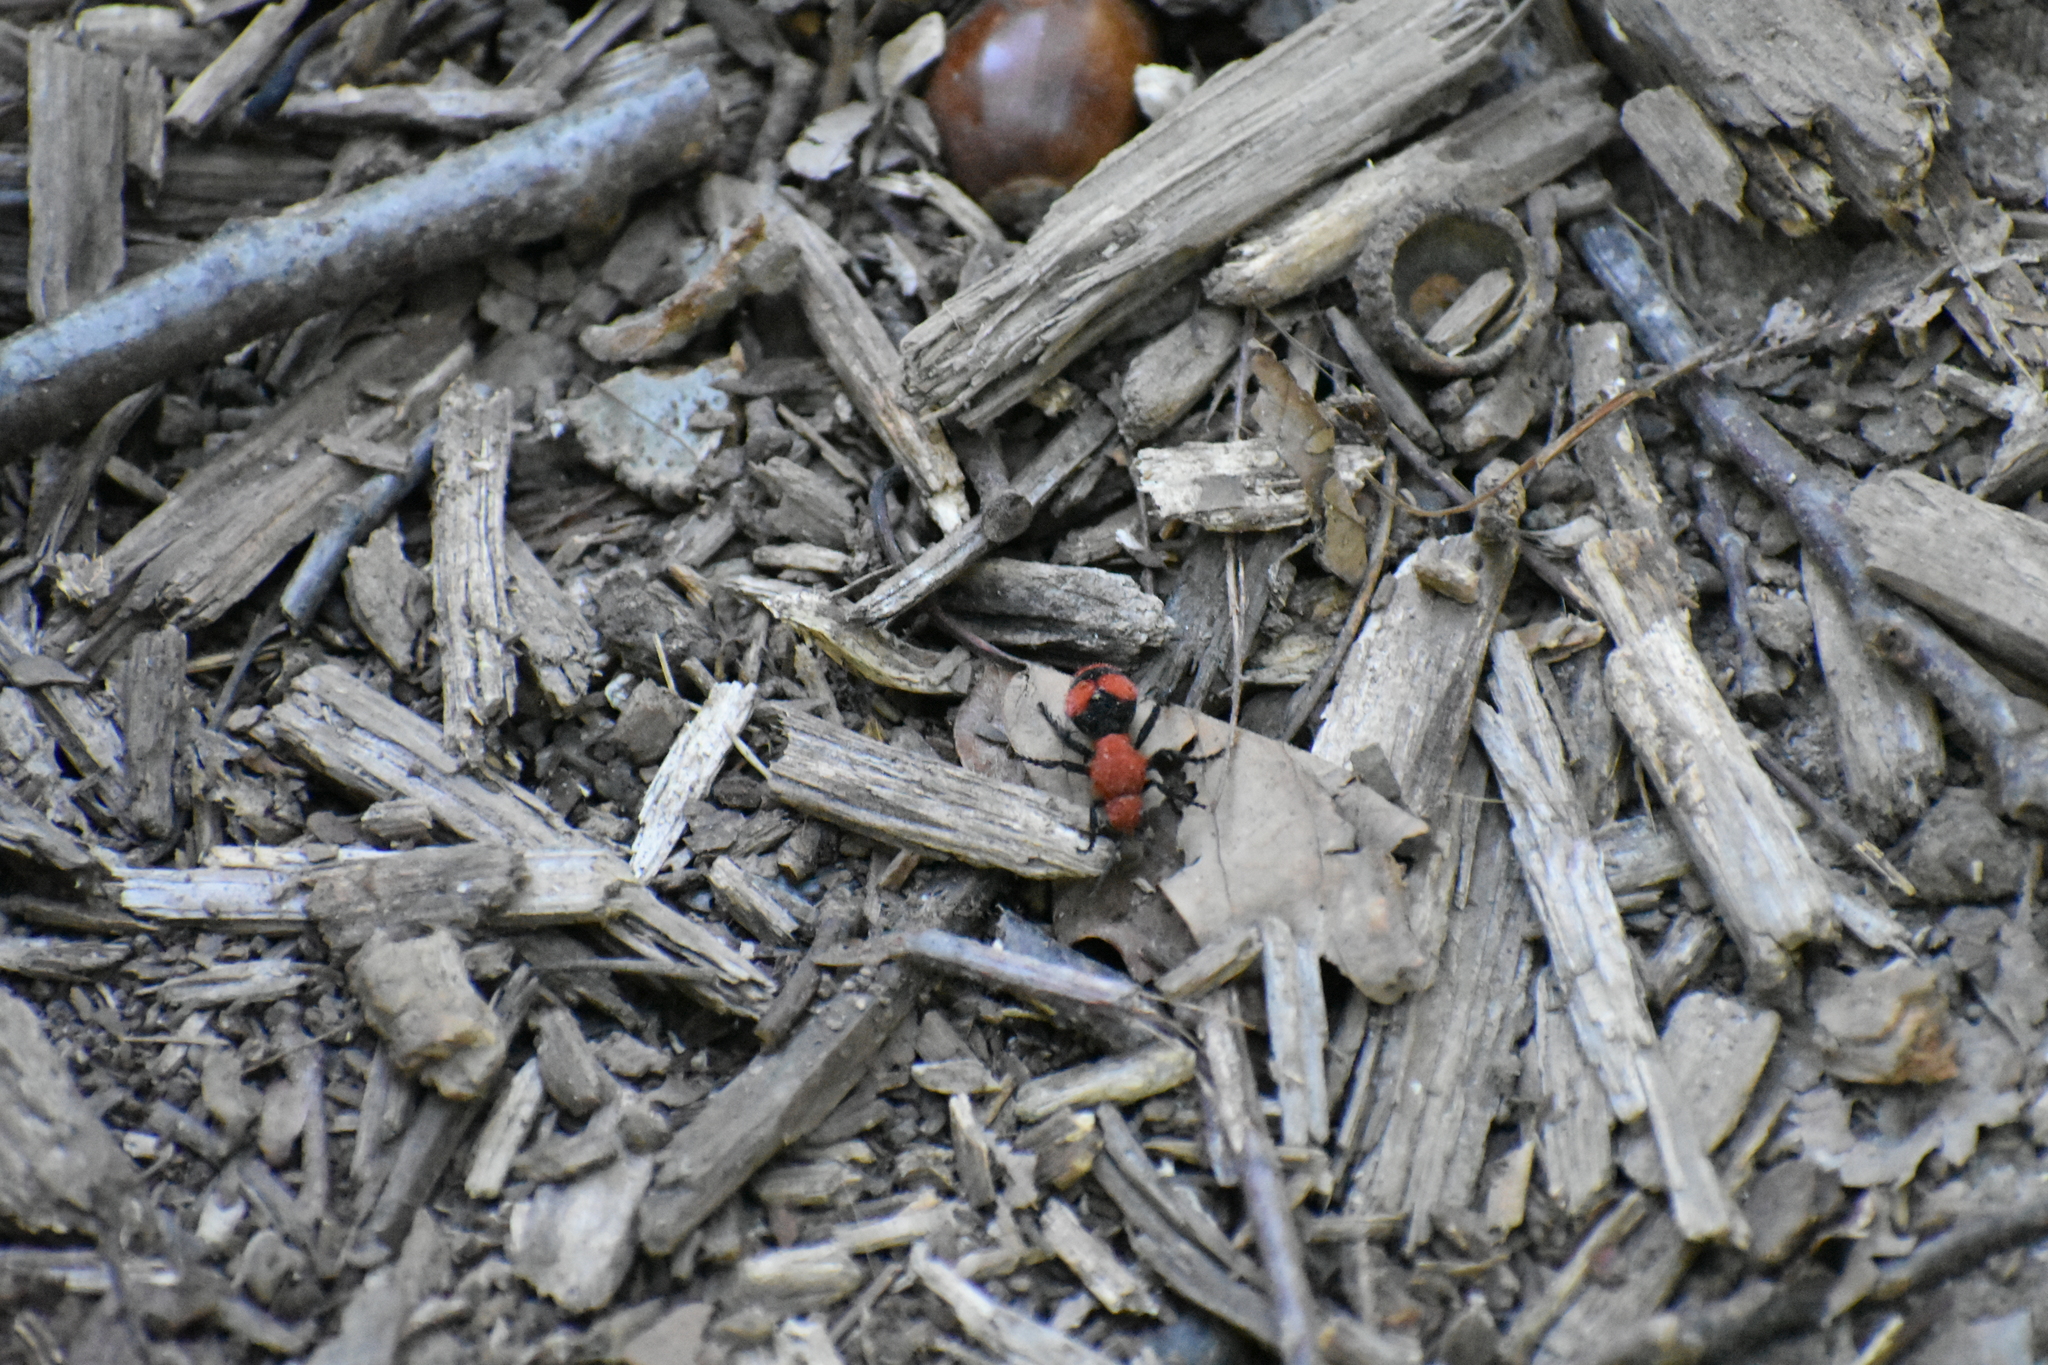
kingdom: Animalia
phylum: Arthropoda
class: Insecta
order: Hymenoptera
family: Mutillidae
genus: Dasymutilla
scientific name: Dasymutilla occidentalis
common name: Common eastern velvet ant
